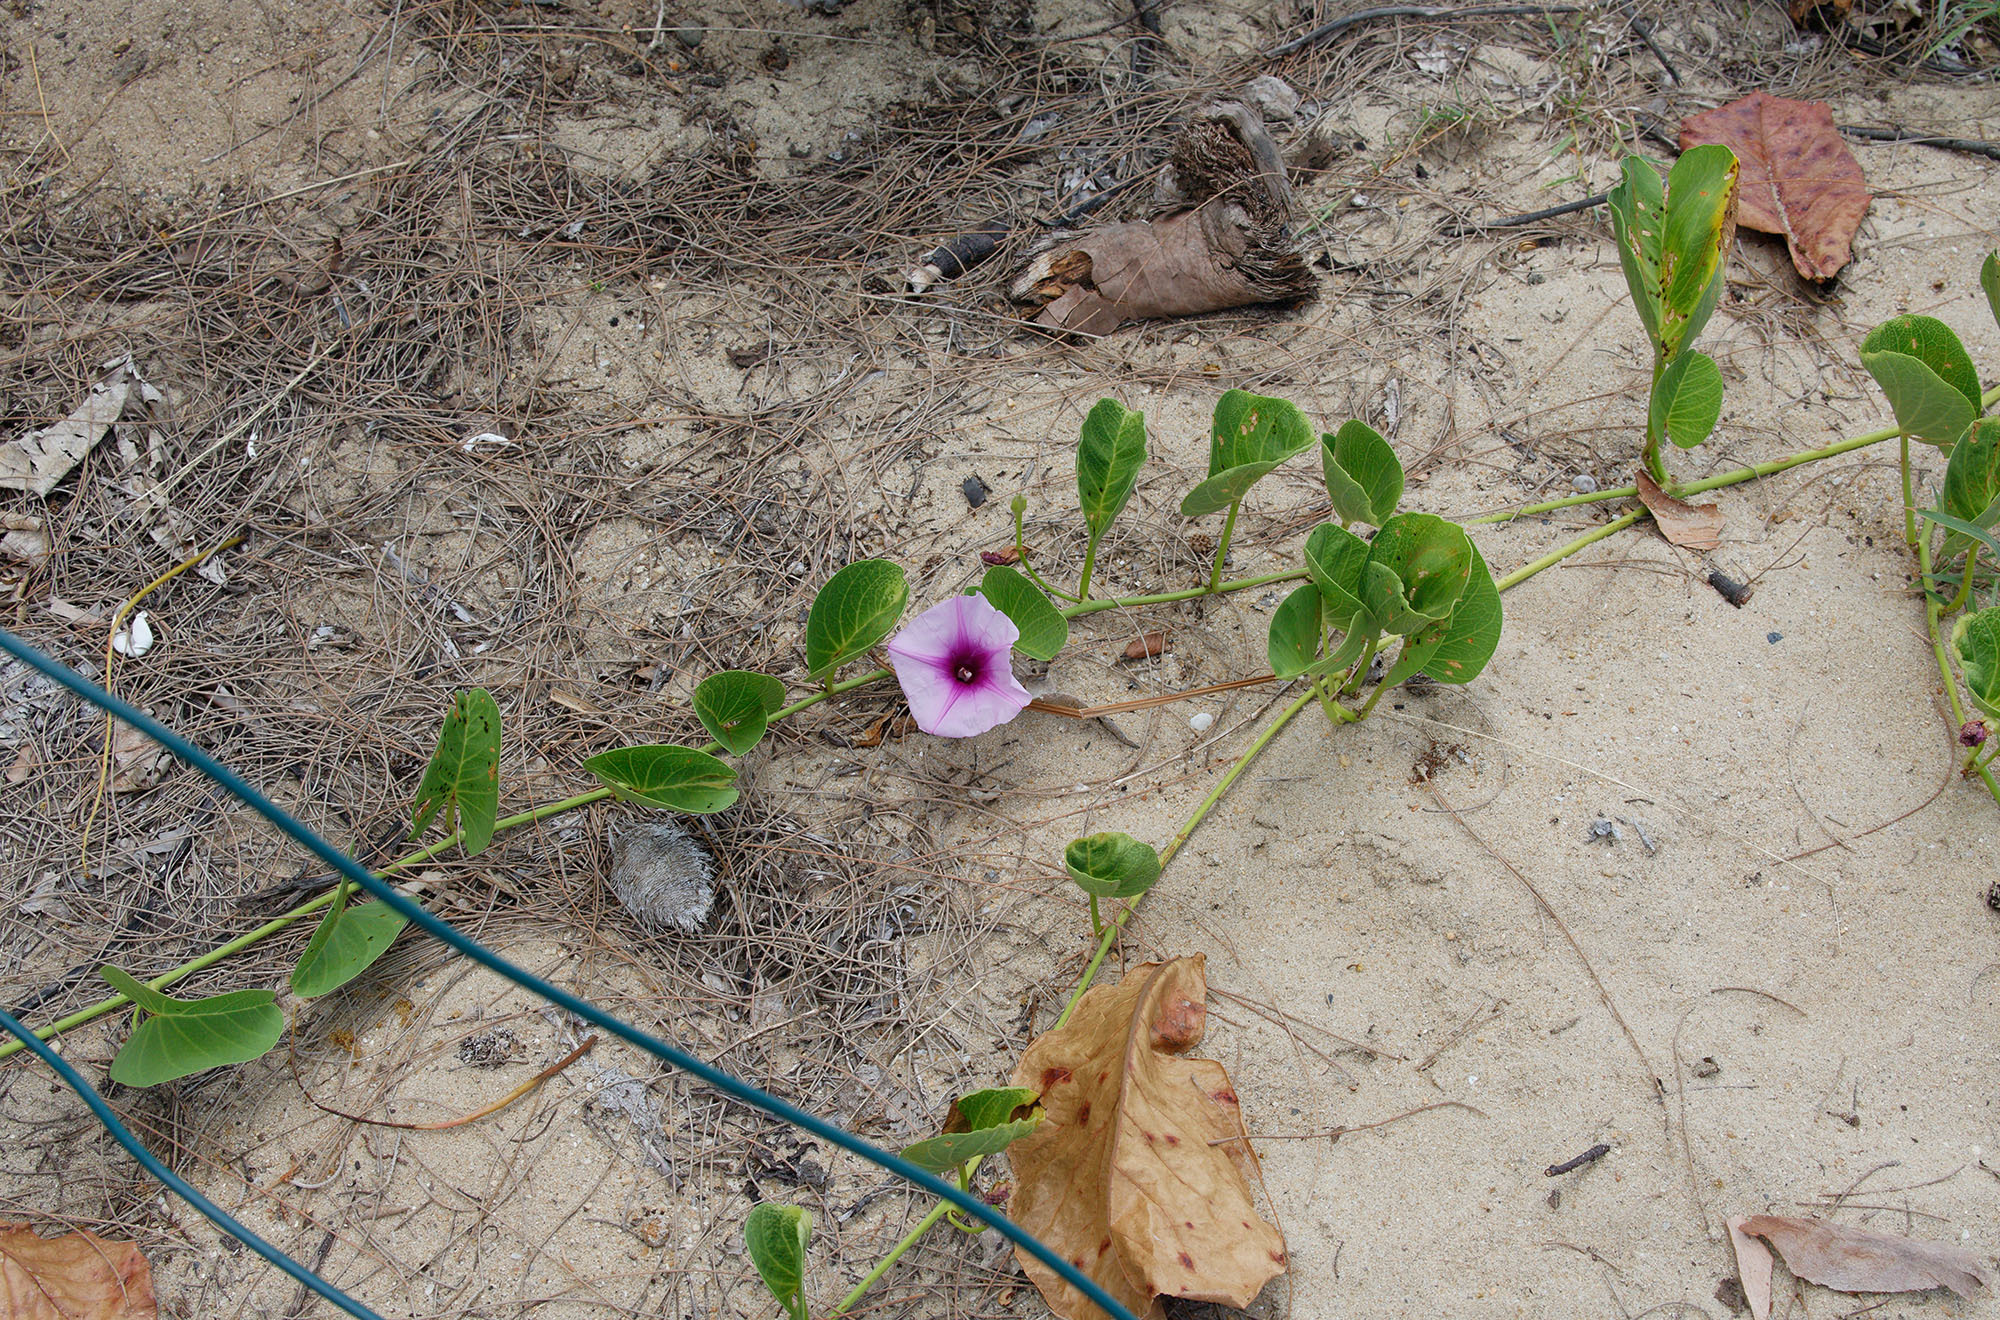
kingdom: Plantae
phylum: Tracheophyta
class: Magnoliopsida
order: Solanales
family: Convolvulaceae
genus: Ipomoea
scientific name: Ipomoea pes-caprae
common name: Beach morning glory
